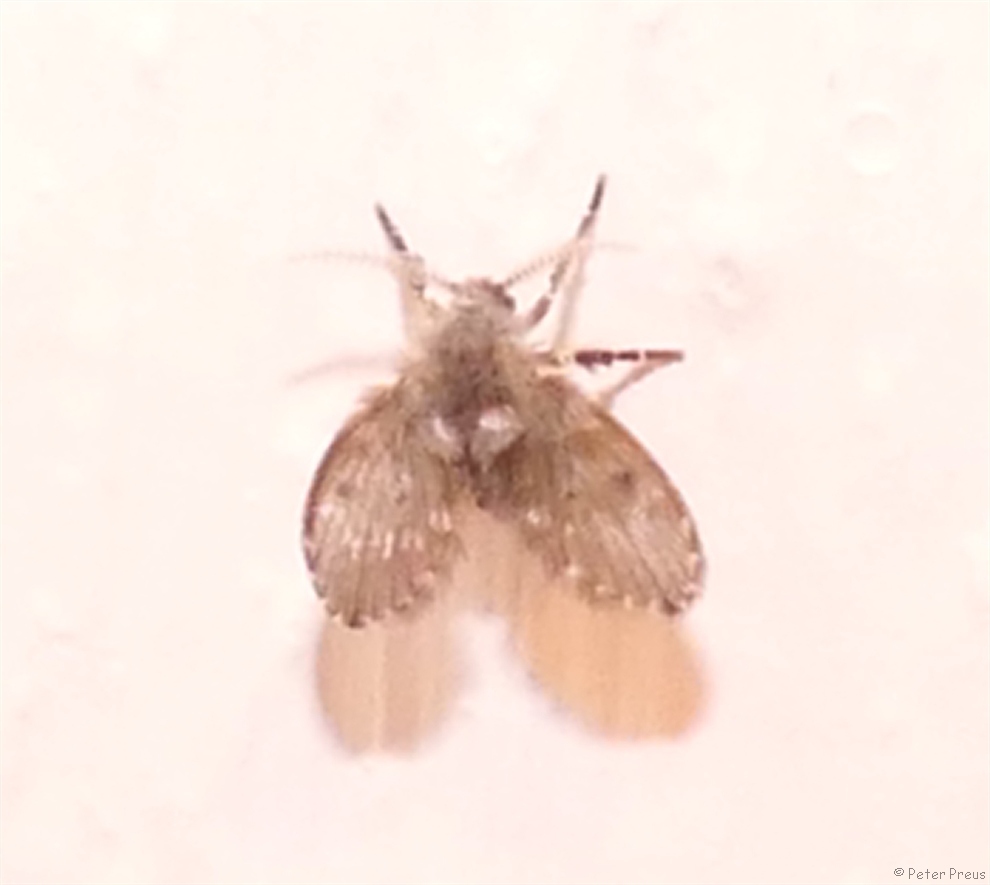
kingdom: Animalia
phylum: Arthropoda
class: Insecta
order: Diptera
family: Psychodidae
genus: Clogmia
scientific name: Clogmia albipunctatus
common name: White-spotted moth fly
